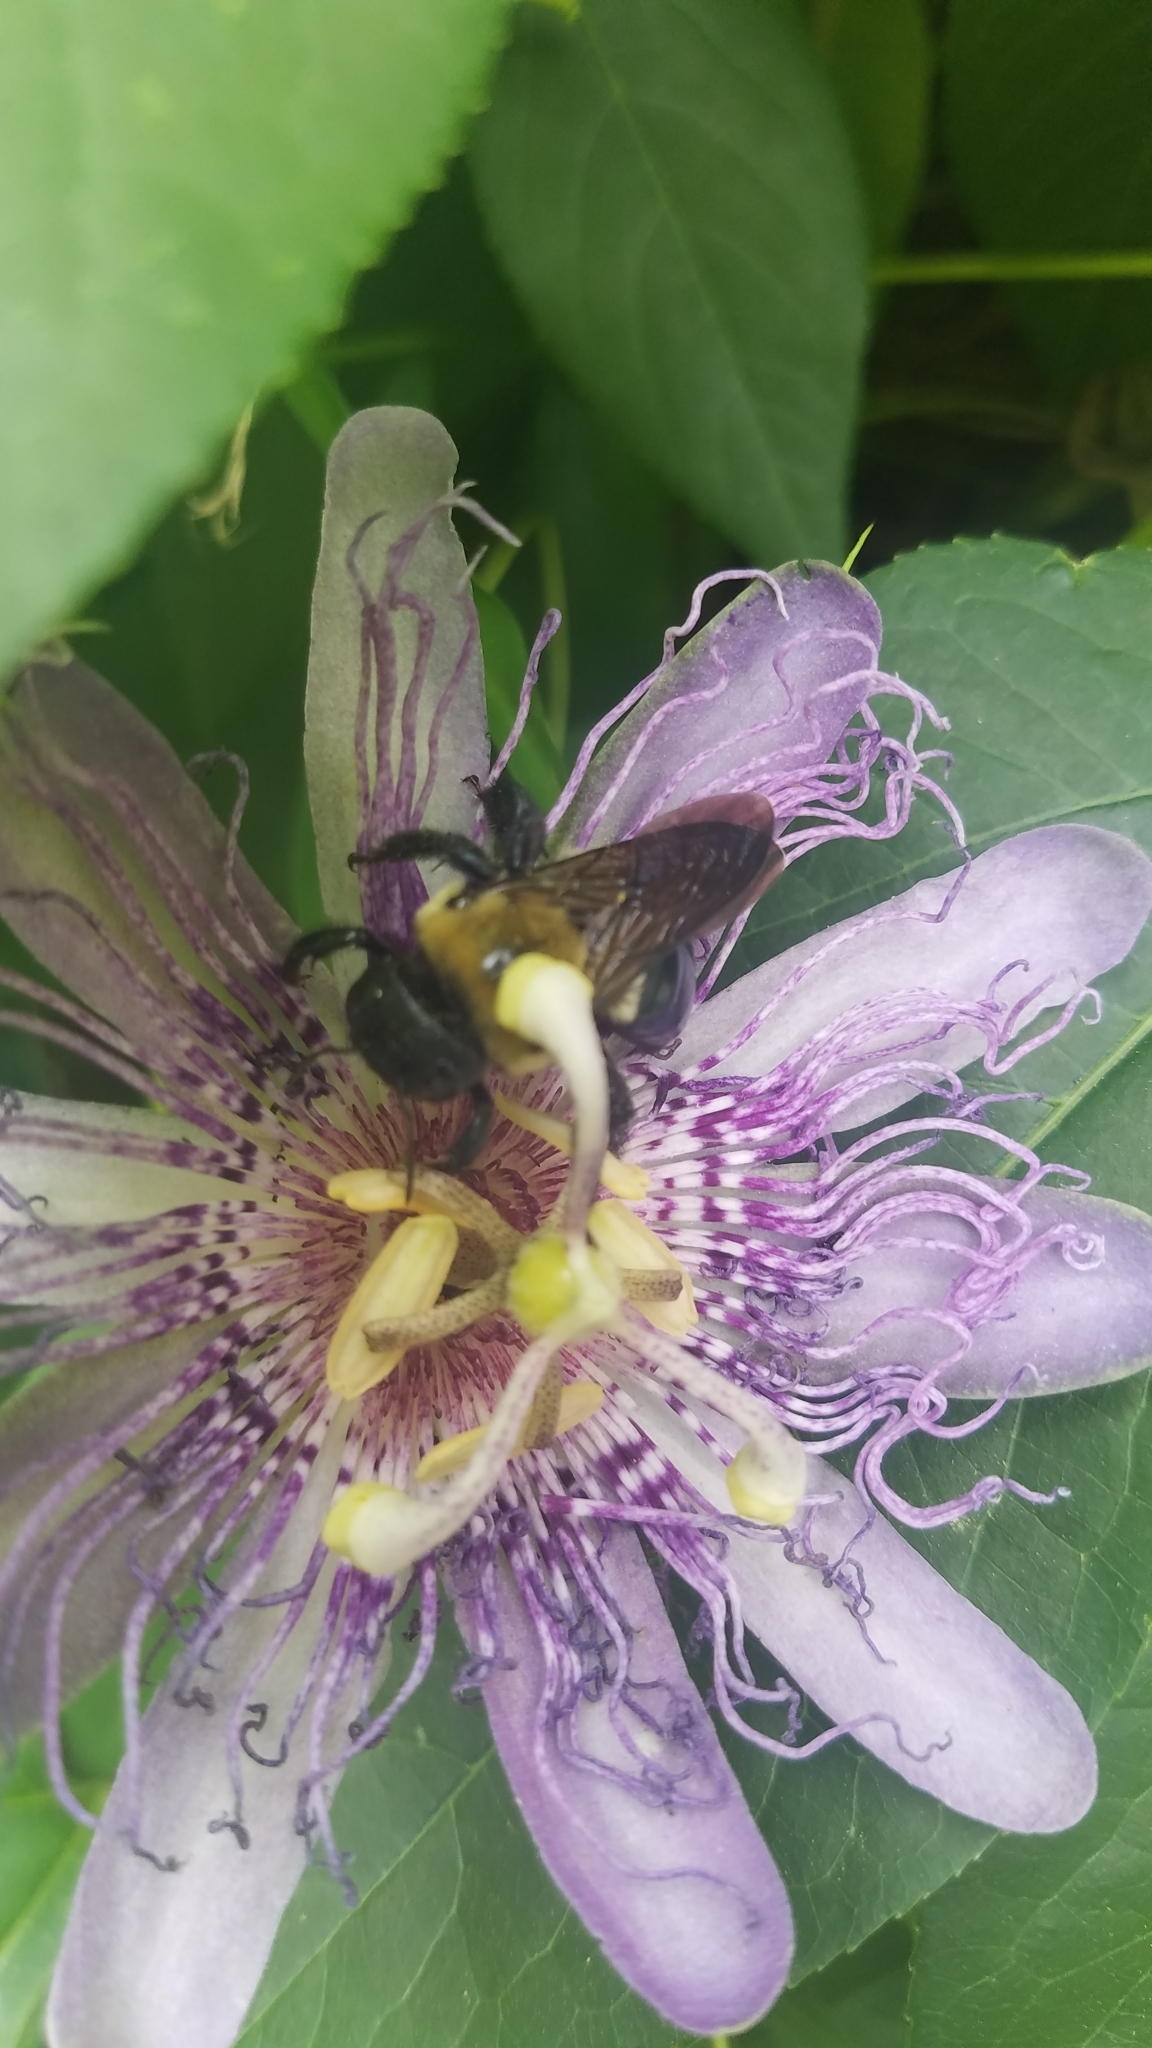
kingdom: Animalia
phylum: Arthropoda
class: Insecta
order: Hymenoptera
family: Apidae
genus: Xylocopa
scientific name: Xylocopa virginica
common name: Carpenter bee
